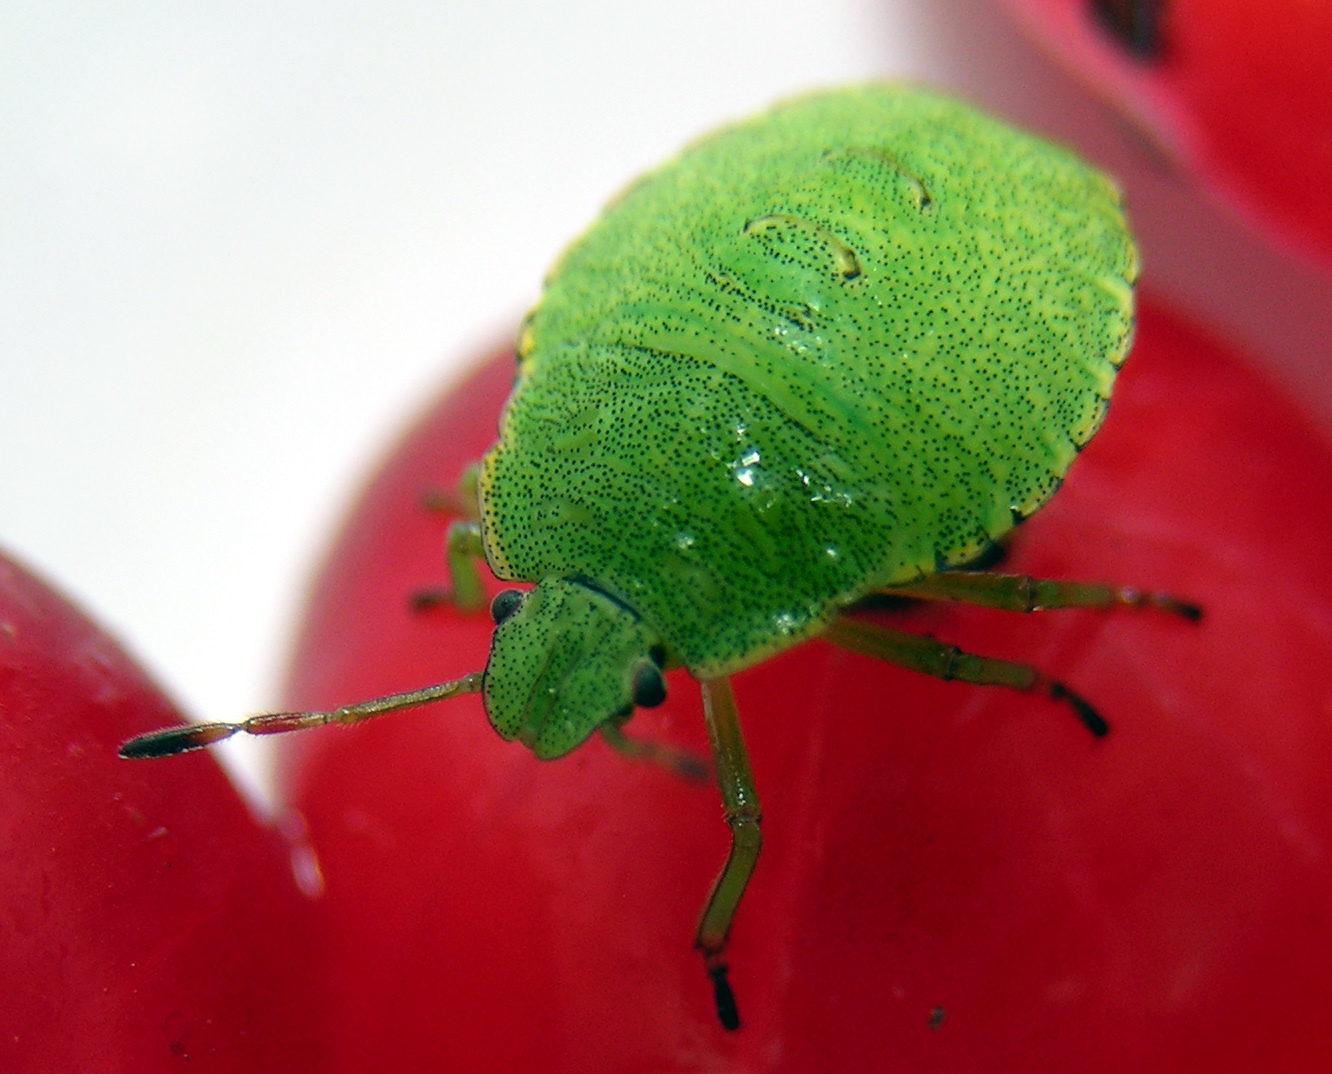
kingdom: Animalia
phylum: Arthropoda
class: Insecta
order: Hemiptera
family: Pentatomidae
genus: Palomena
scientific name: Palomena prasina
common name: Green shieldbug
